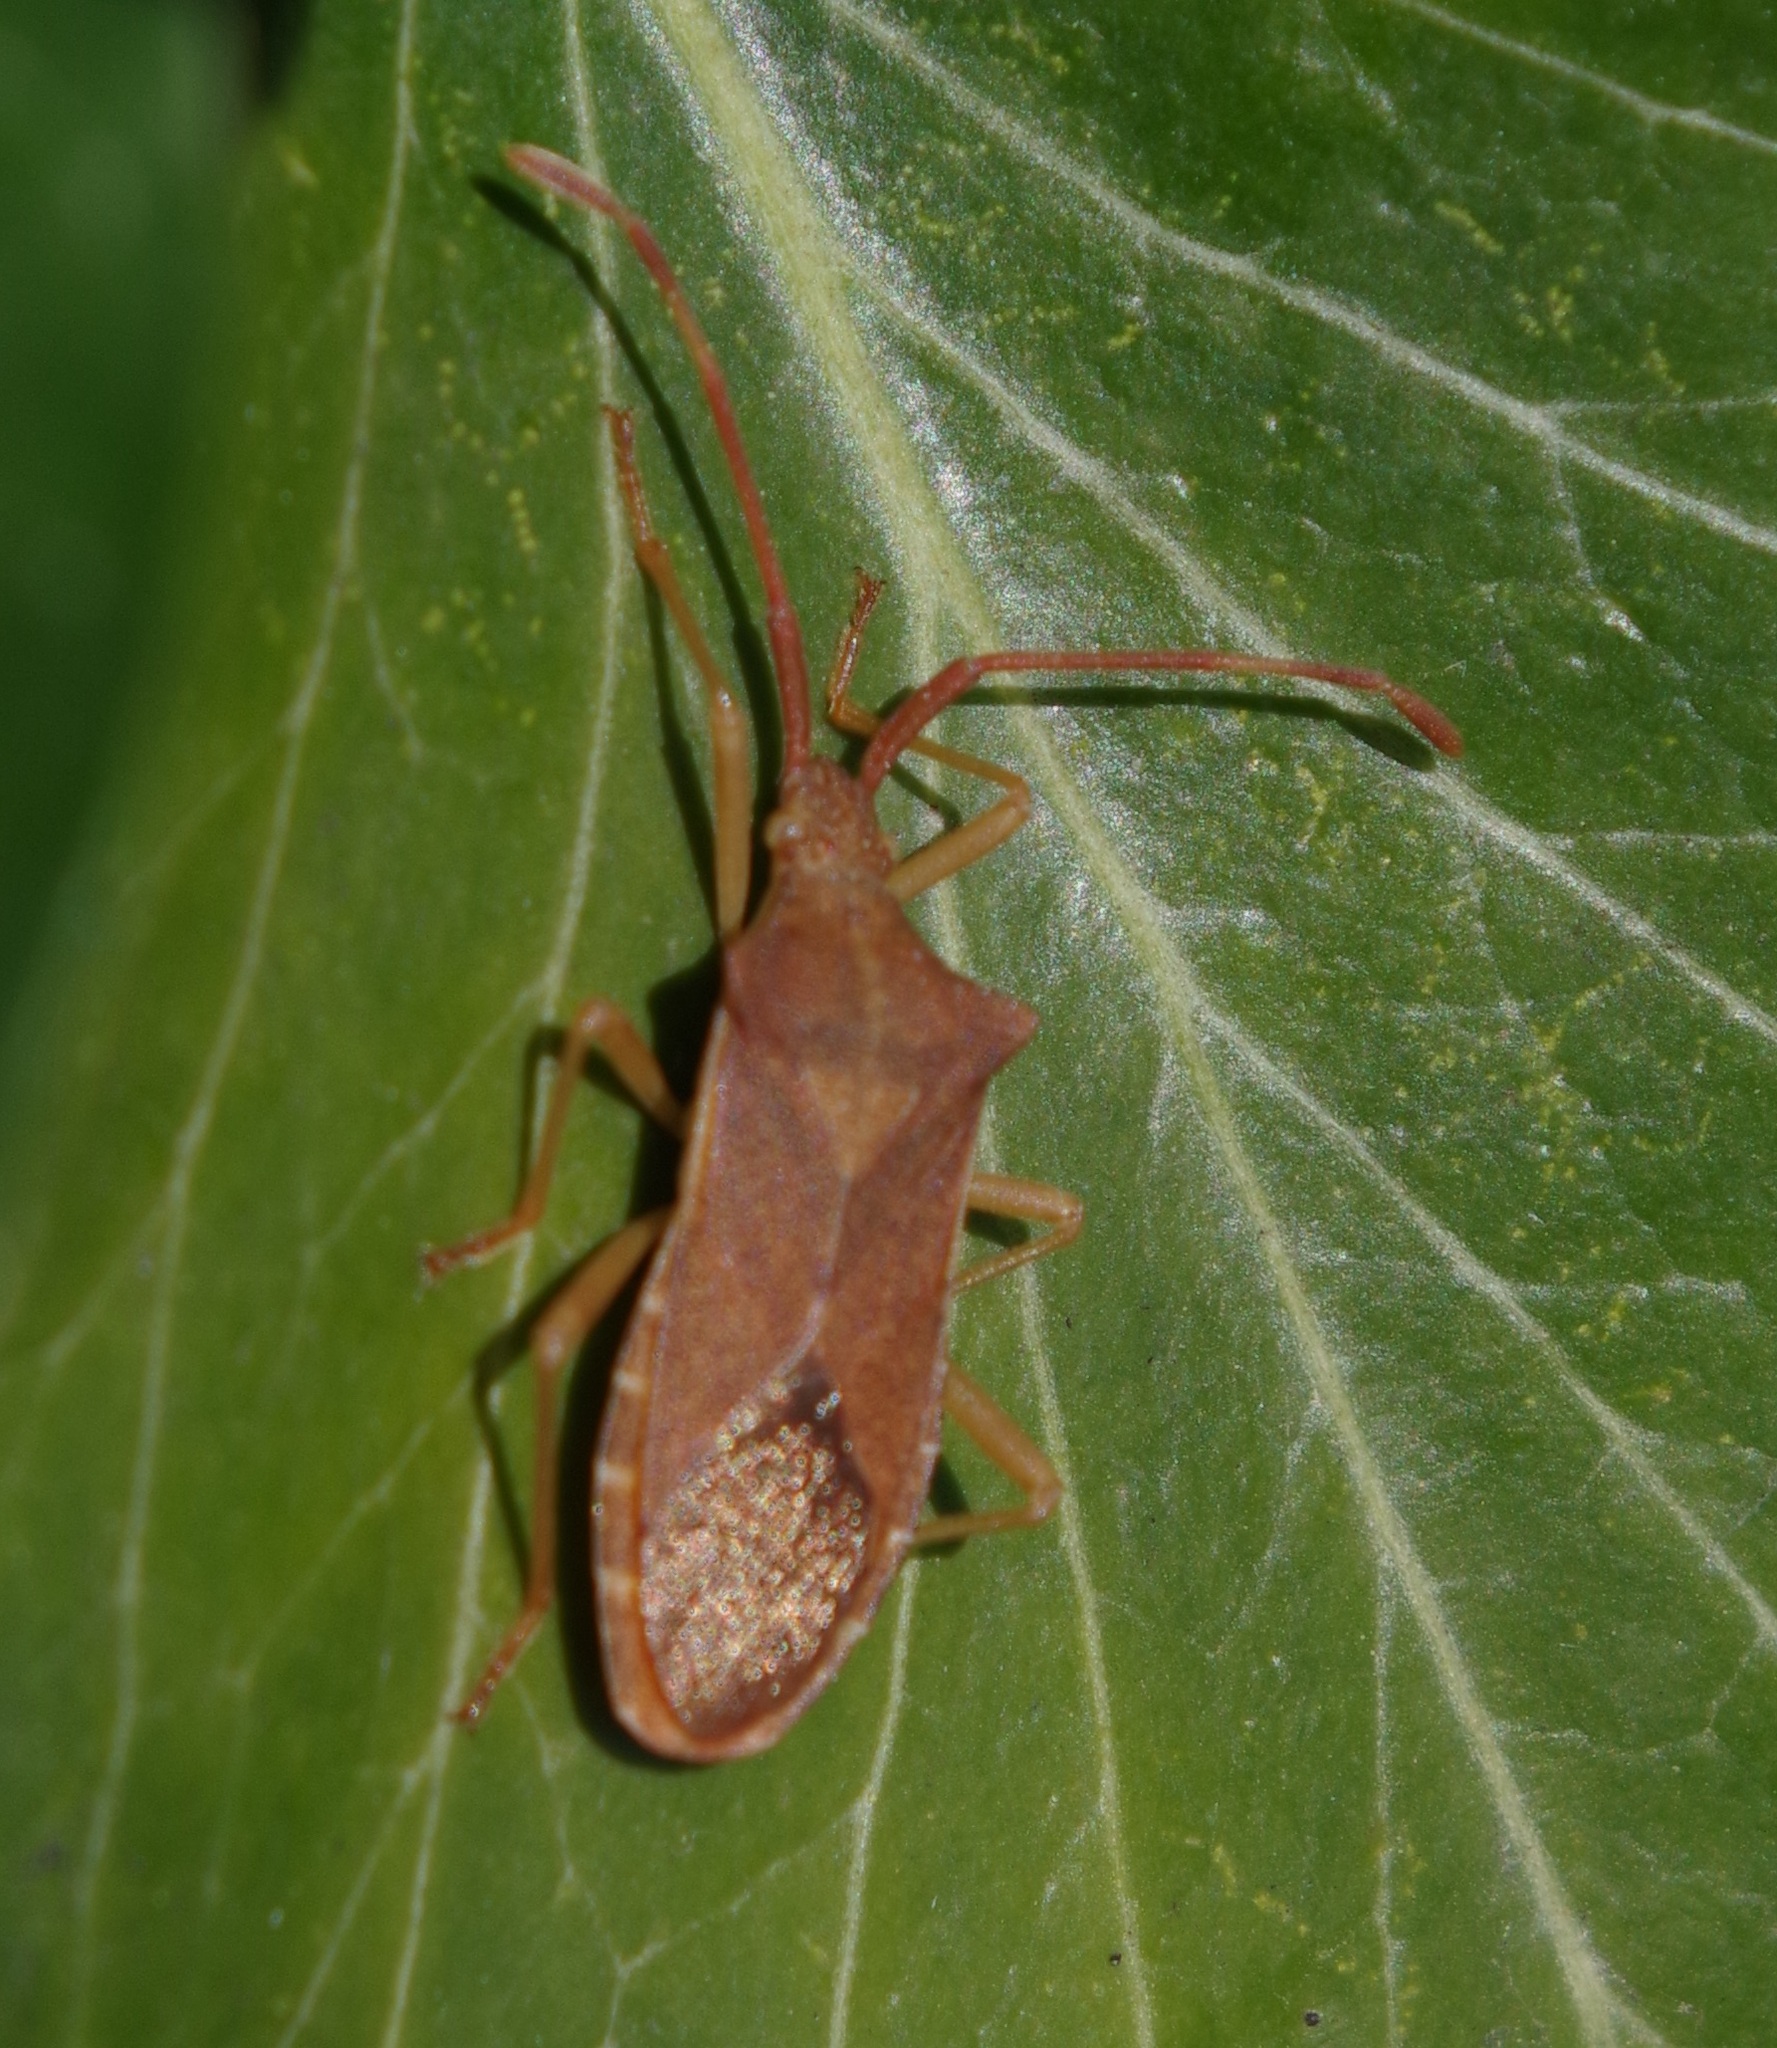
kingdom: Animalia
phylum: Arthropoda
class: Insecta
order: Hemiptera
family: Coreidae
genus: Gonocerus
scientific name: Gonocerus acuteangulatus
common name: Box bug
